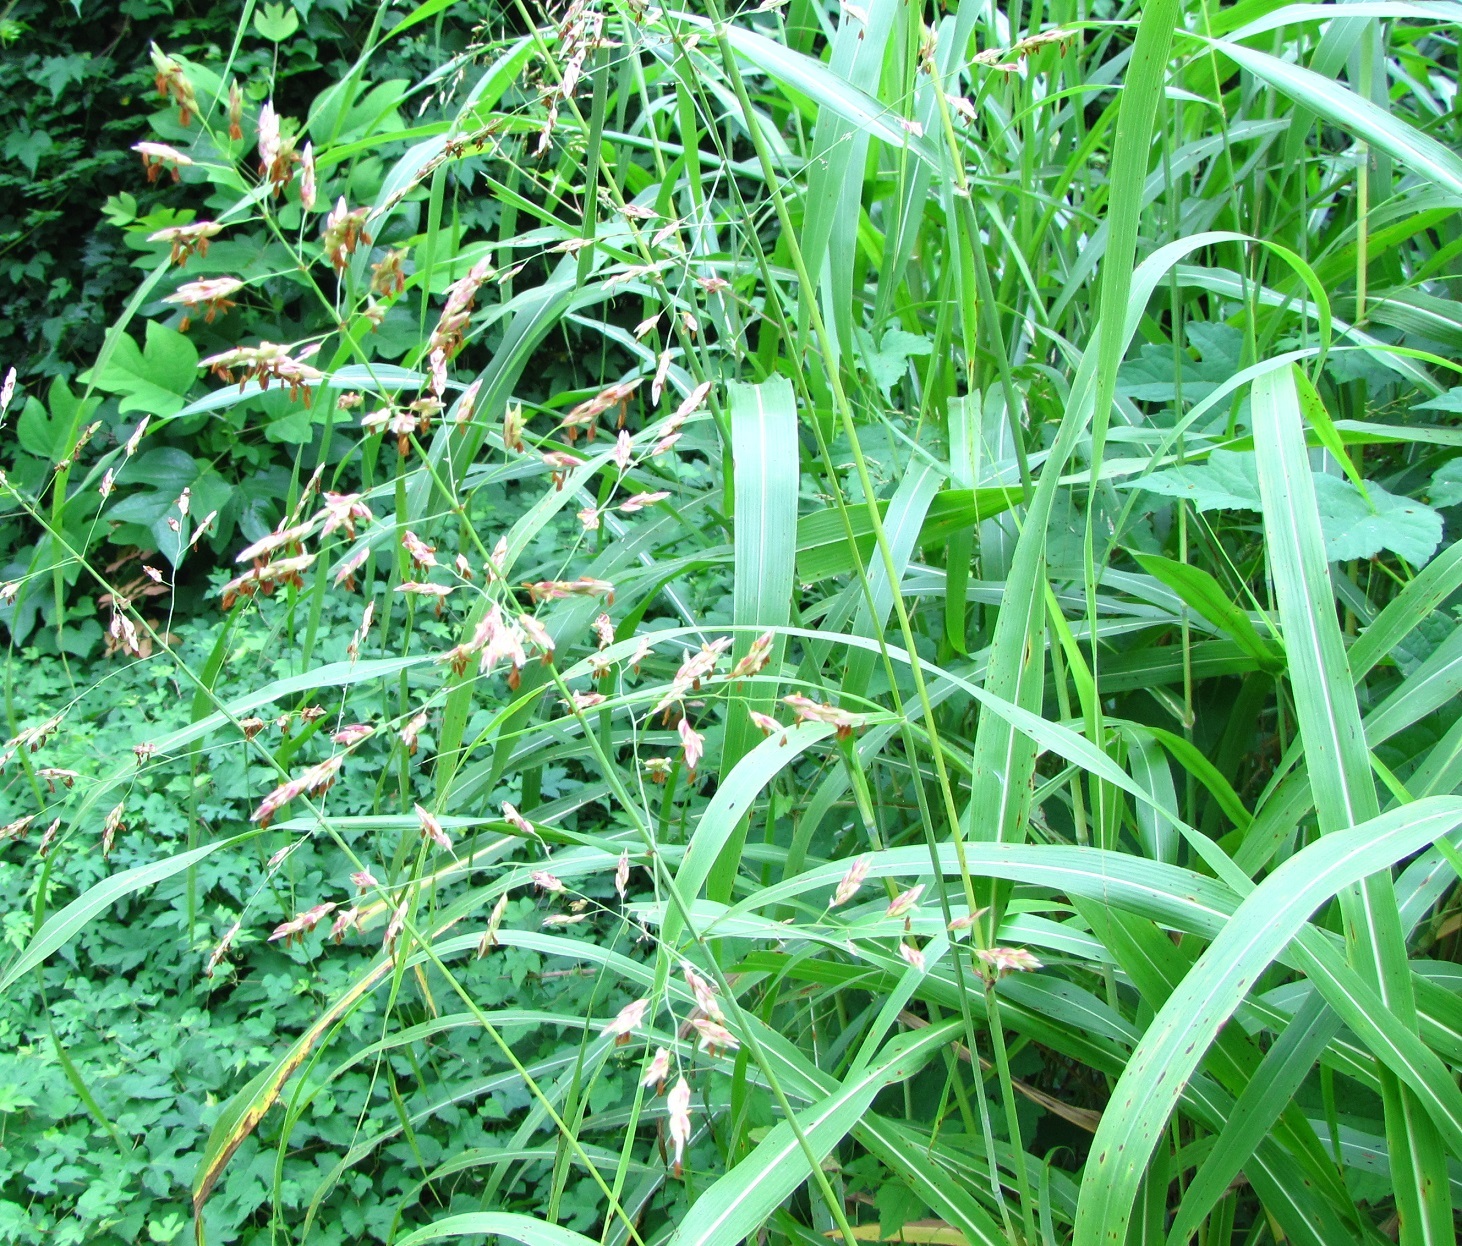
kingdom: Plantae
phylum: Tracheophyta
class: Liliopsida
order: Poales
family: Poaceae
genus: Sorghum
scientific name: Sorghum halepense
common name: Johnson-grass
